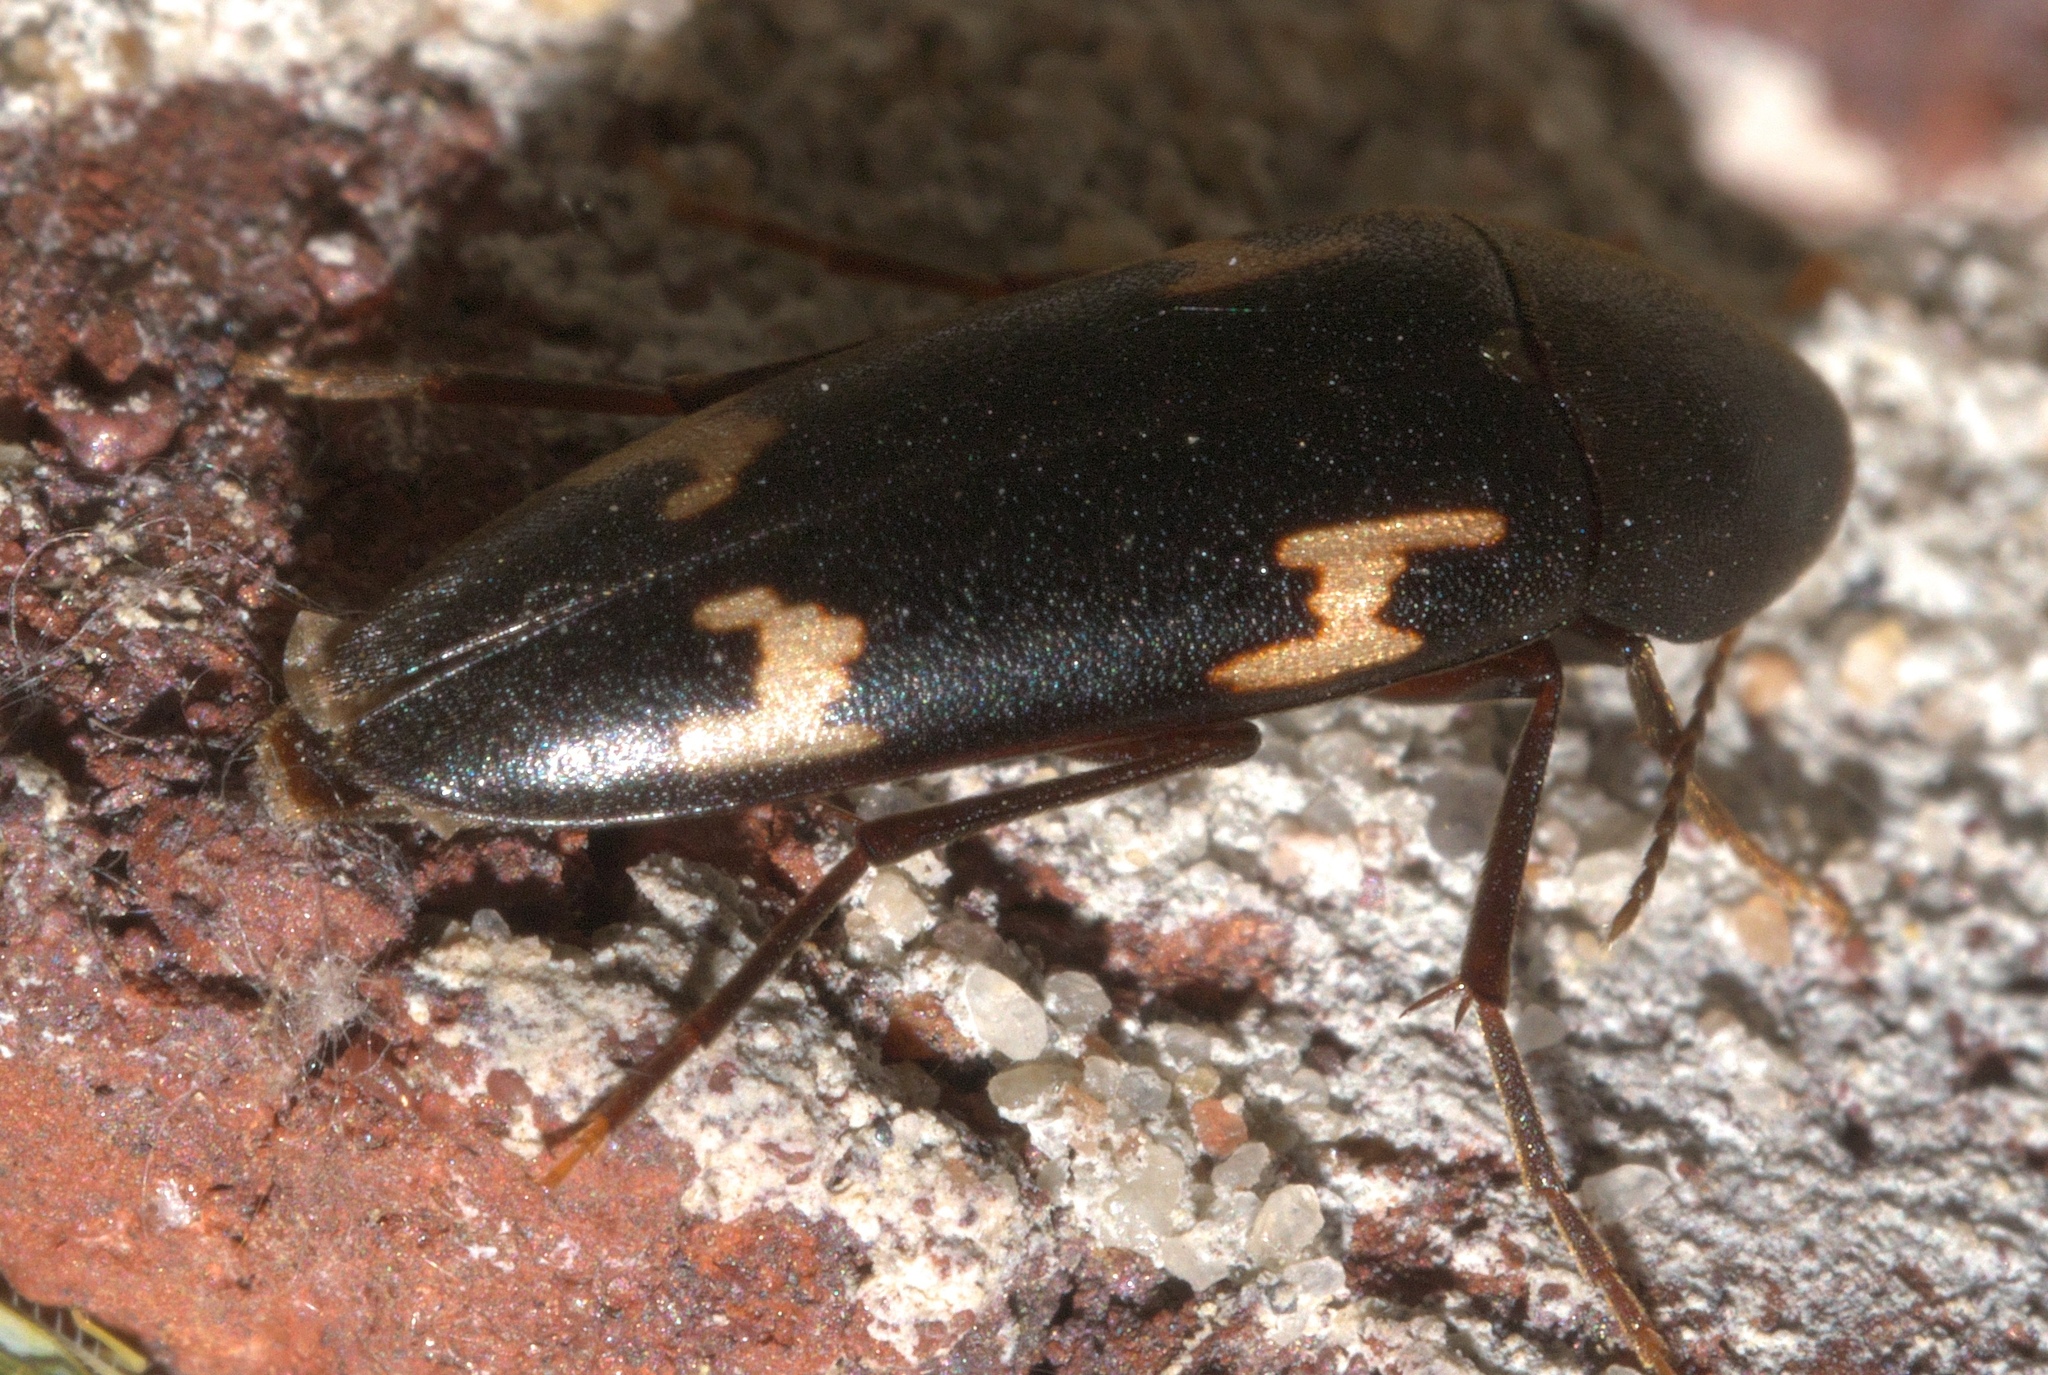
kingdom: Animalia
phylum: Arthropoda
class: Insecta
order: Coleoptera
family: Melandryidae
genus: Dircaea
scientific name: Dircaea liturata
